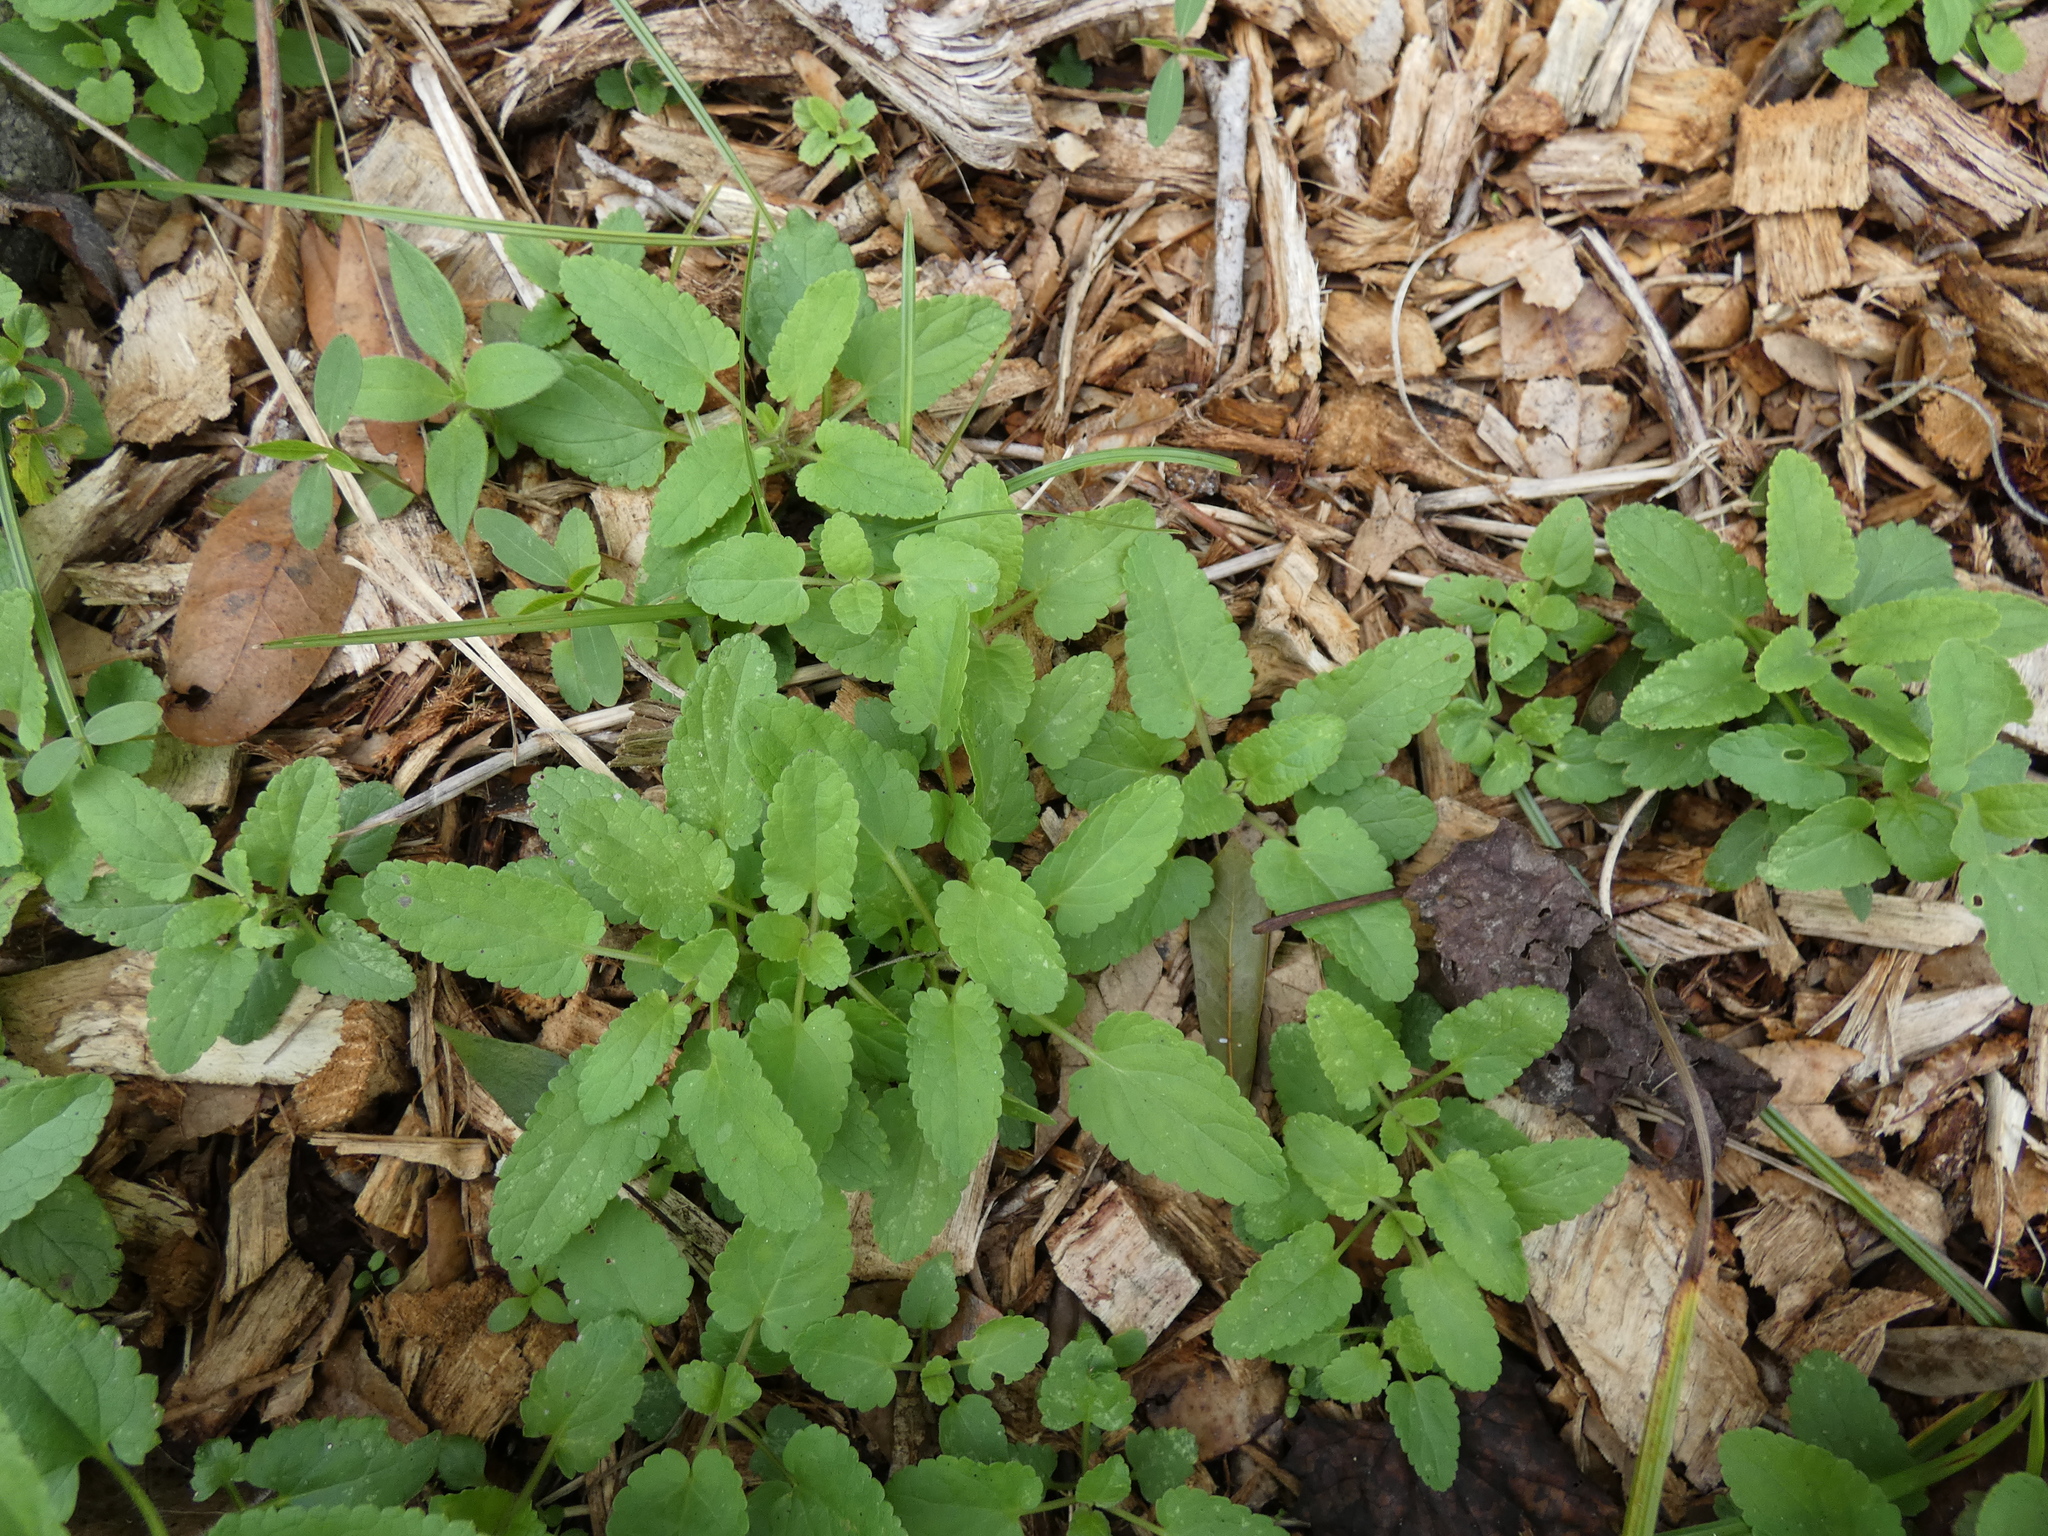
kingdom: Plantae
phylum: Tracheophyta
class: Magnoliopsida
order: Lamiales
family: Lamiaceae
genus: Stachys
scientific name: Stachys floridana
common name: Florida betony
